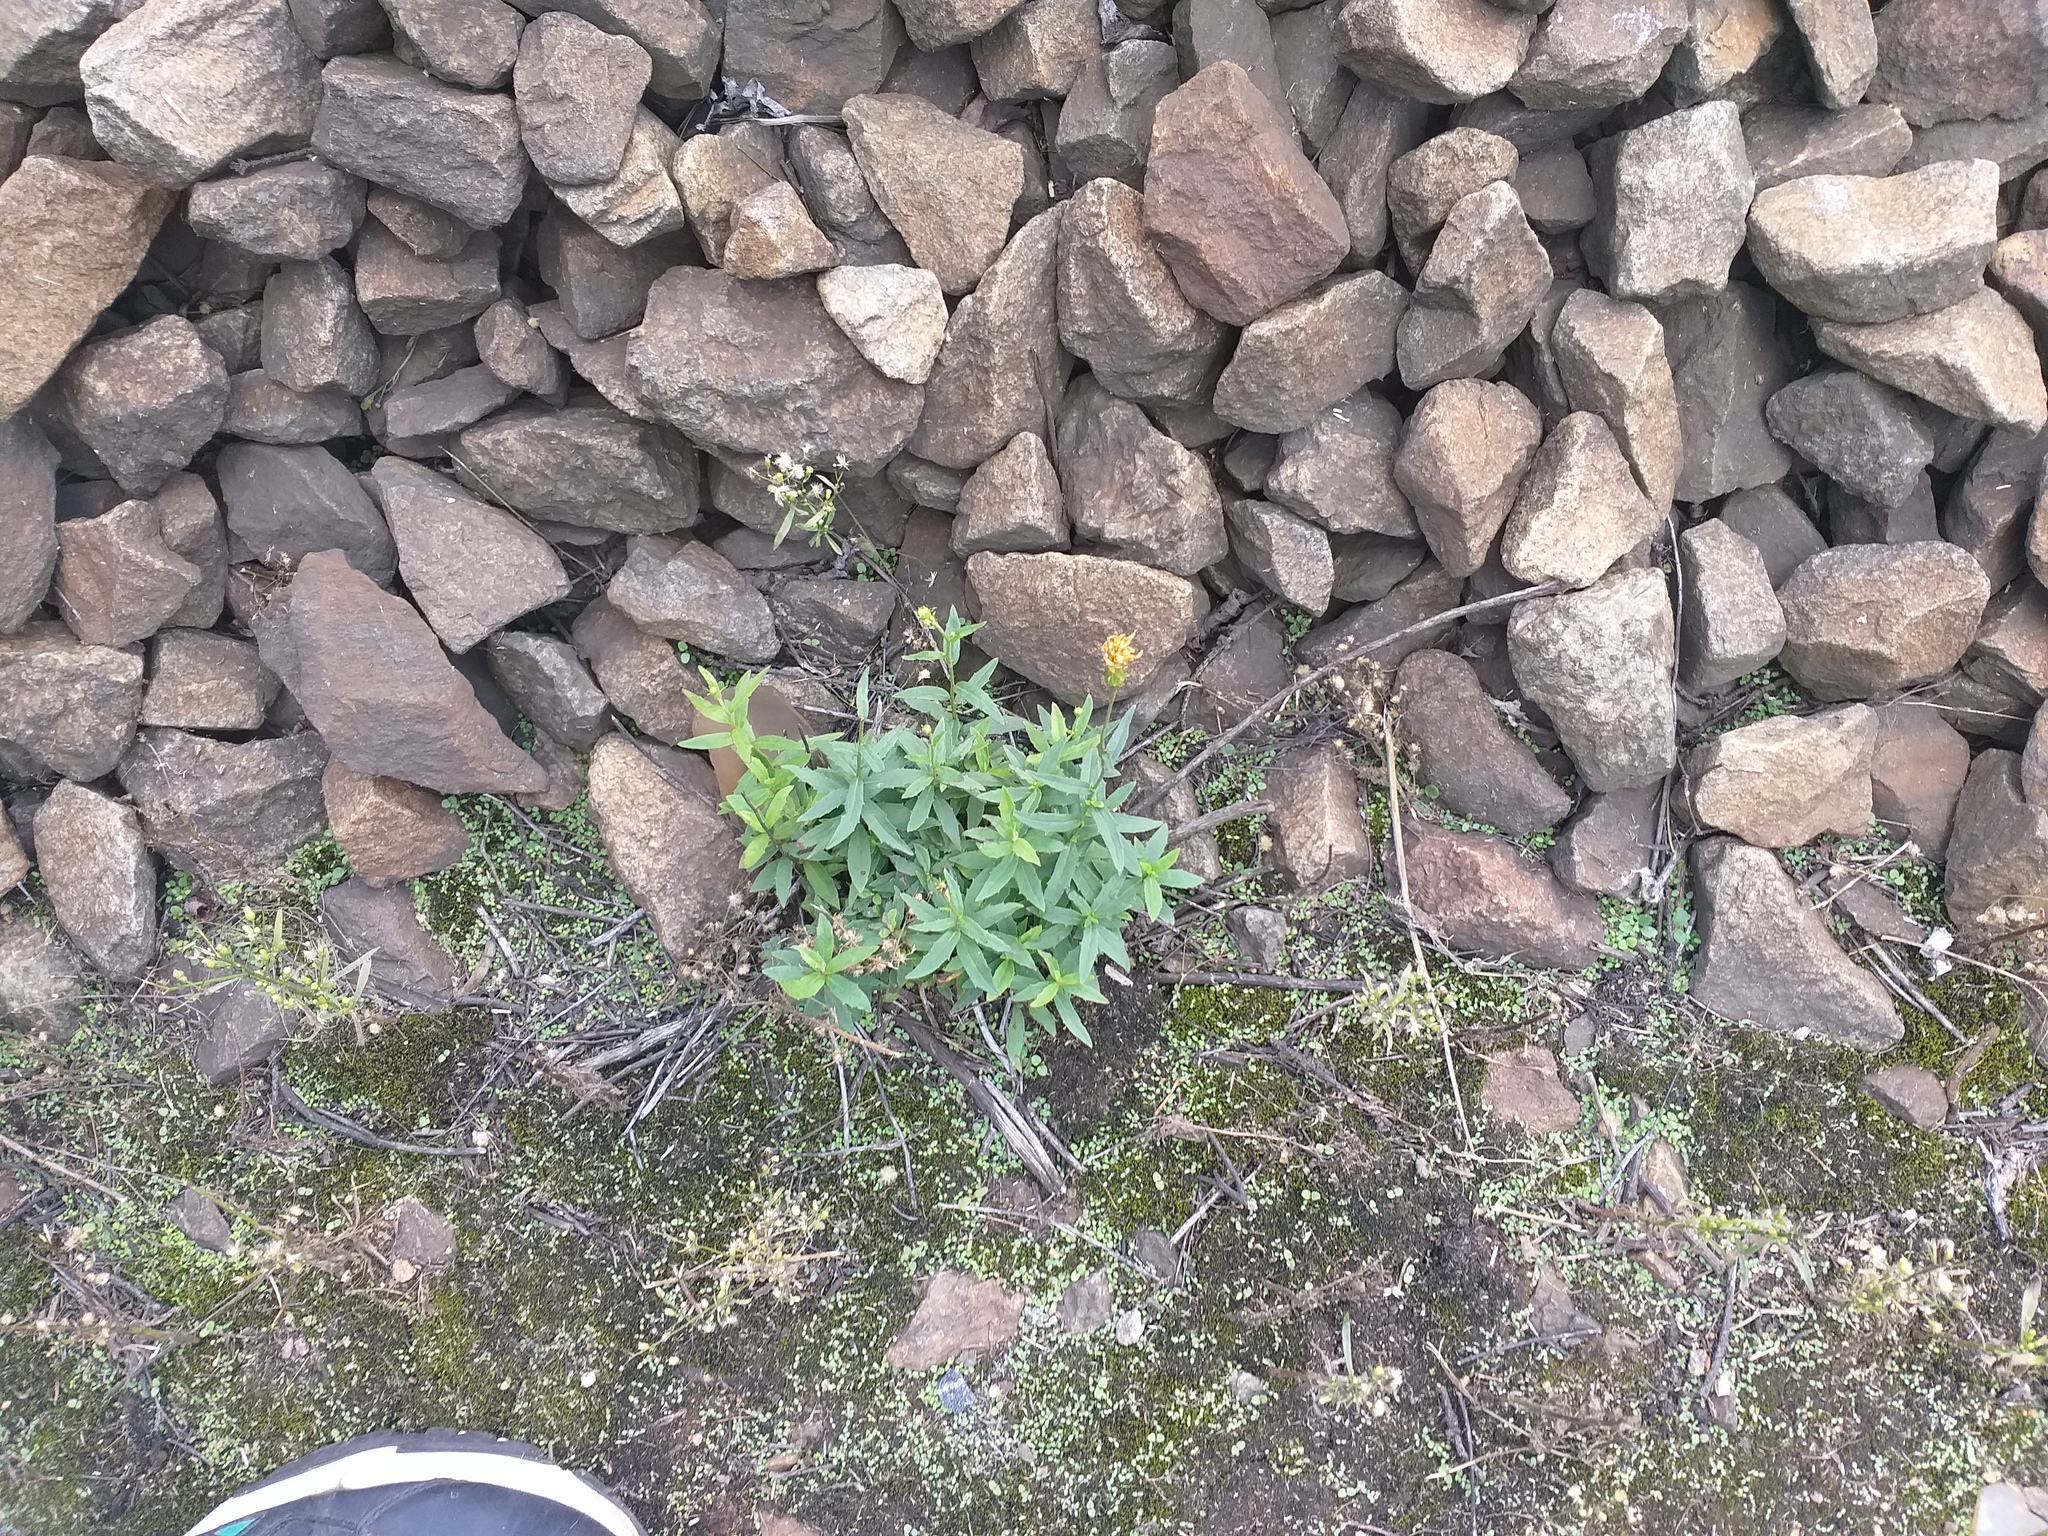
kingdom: Plantae
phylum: Tracheophyta
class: Magnoliopsida
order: Asterales
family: Asteraceae
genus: Hieracium
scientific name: Hieracium umbellatum
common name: Northern hawkweed
